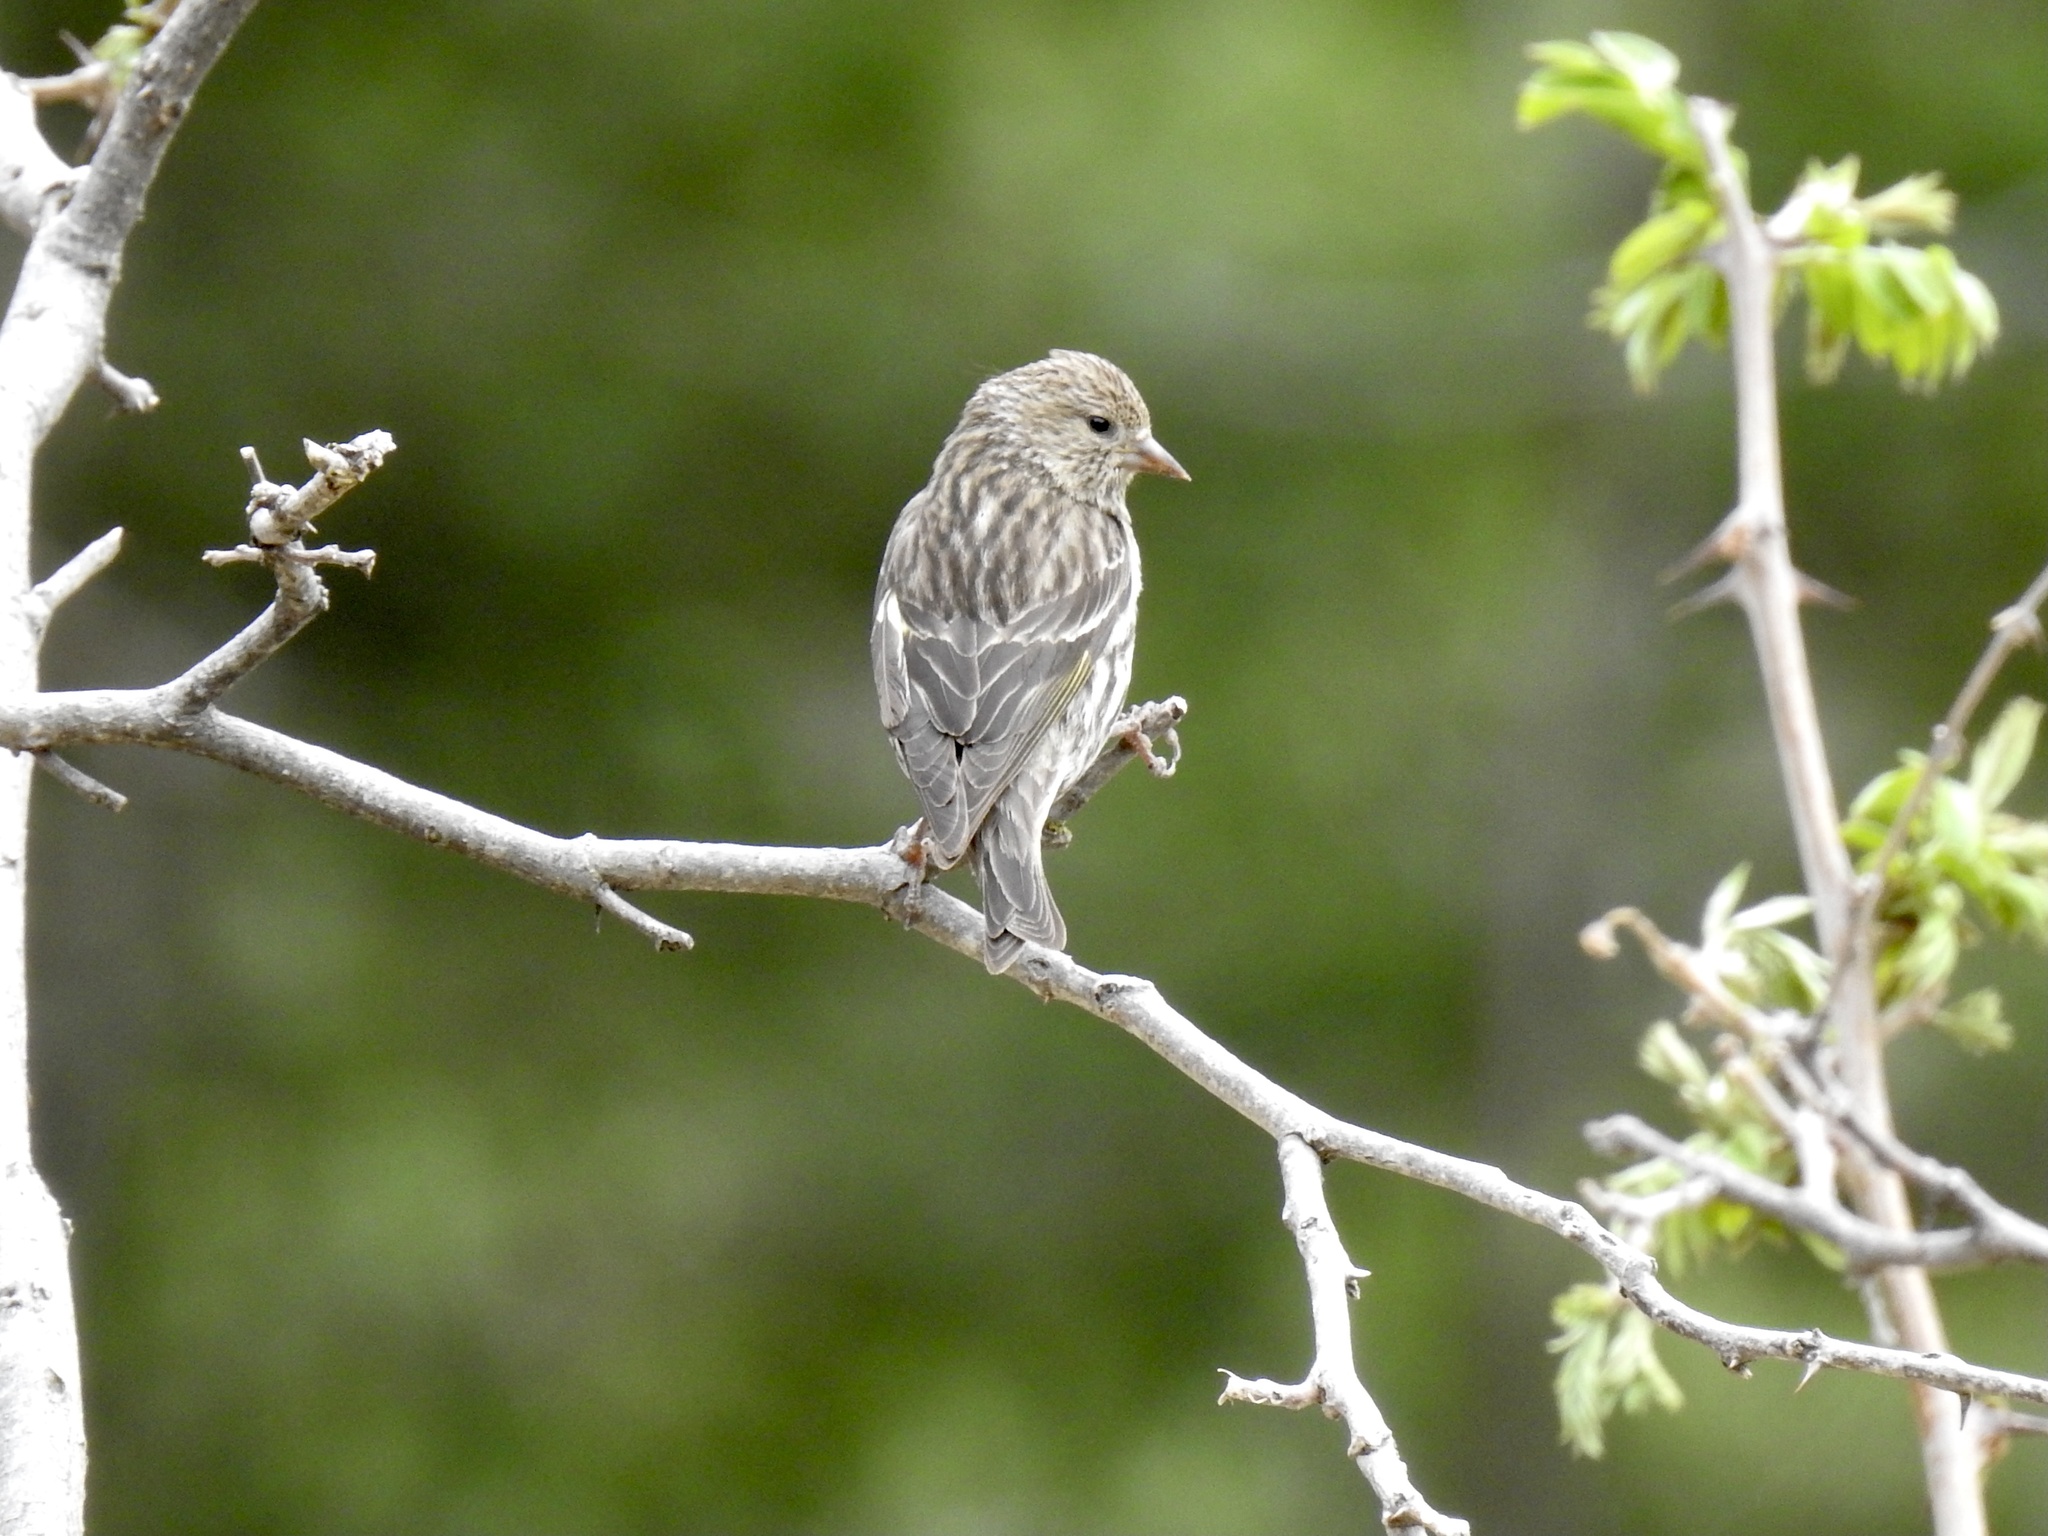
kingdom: Animalia
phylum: Chordata
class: Aves
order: Passeriformes
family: Fringillidae
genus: Spinus
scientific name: Spinus pinus
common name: Pine siskin
